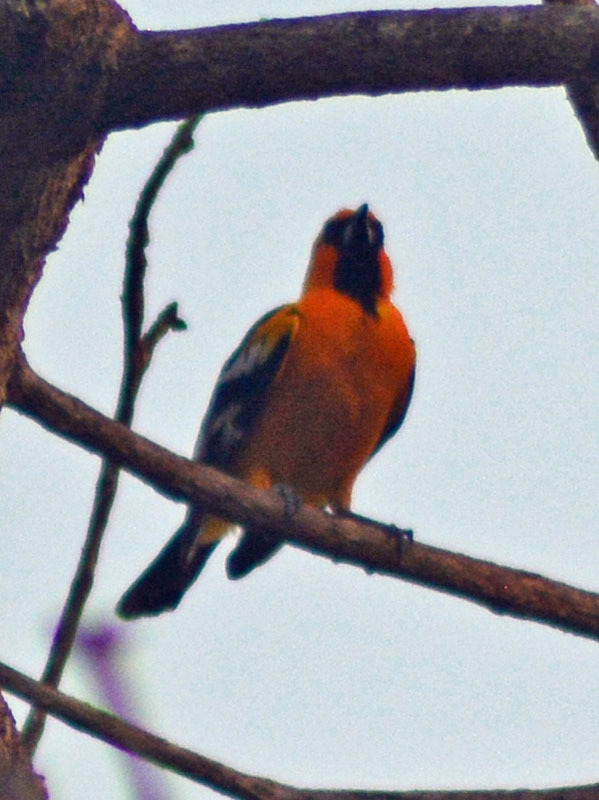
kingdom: Animalia
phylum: Chordata
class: Aves
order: Passeriformes
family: Icteridae
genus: Icterus
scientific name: Icterus pustulatus
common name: Streak-backed oriole
